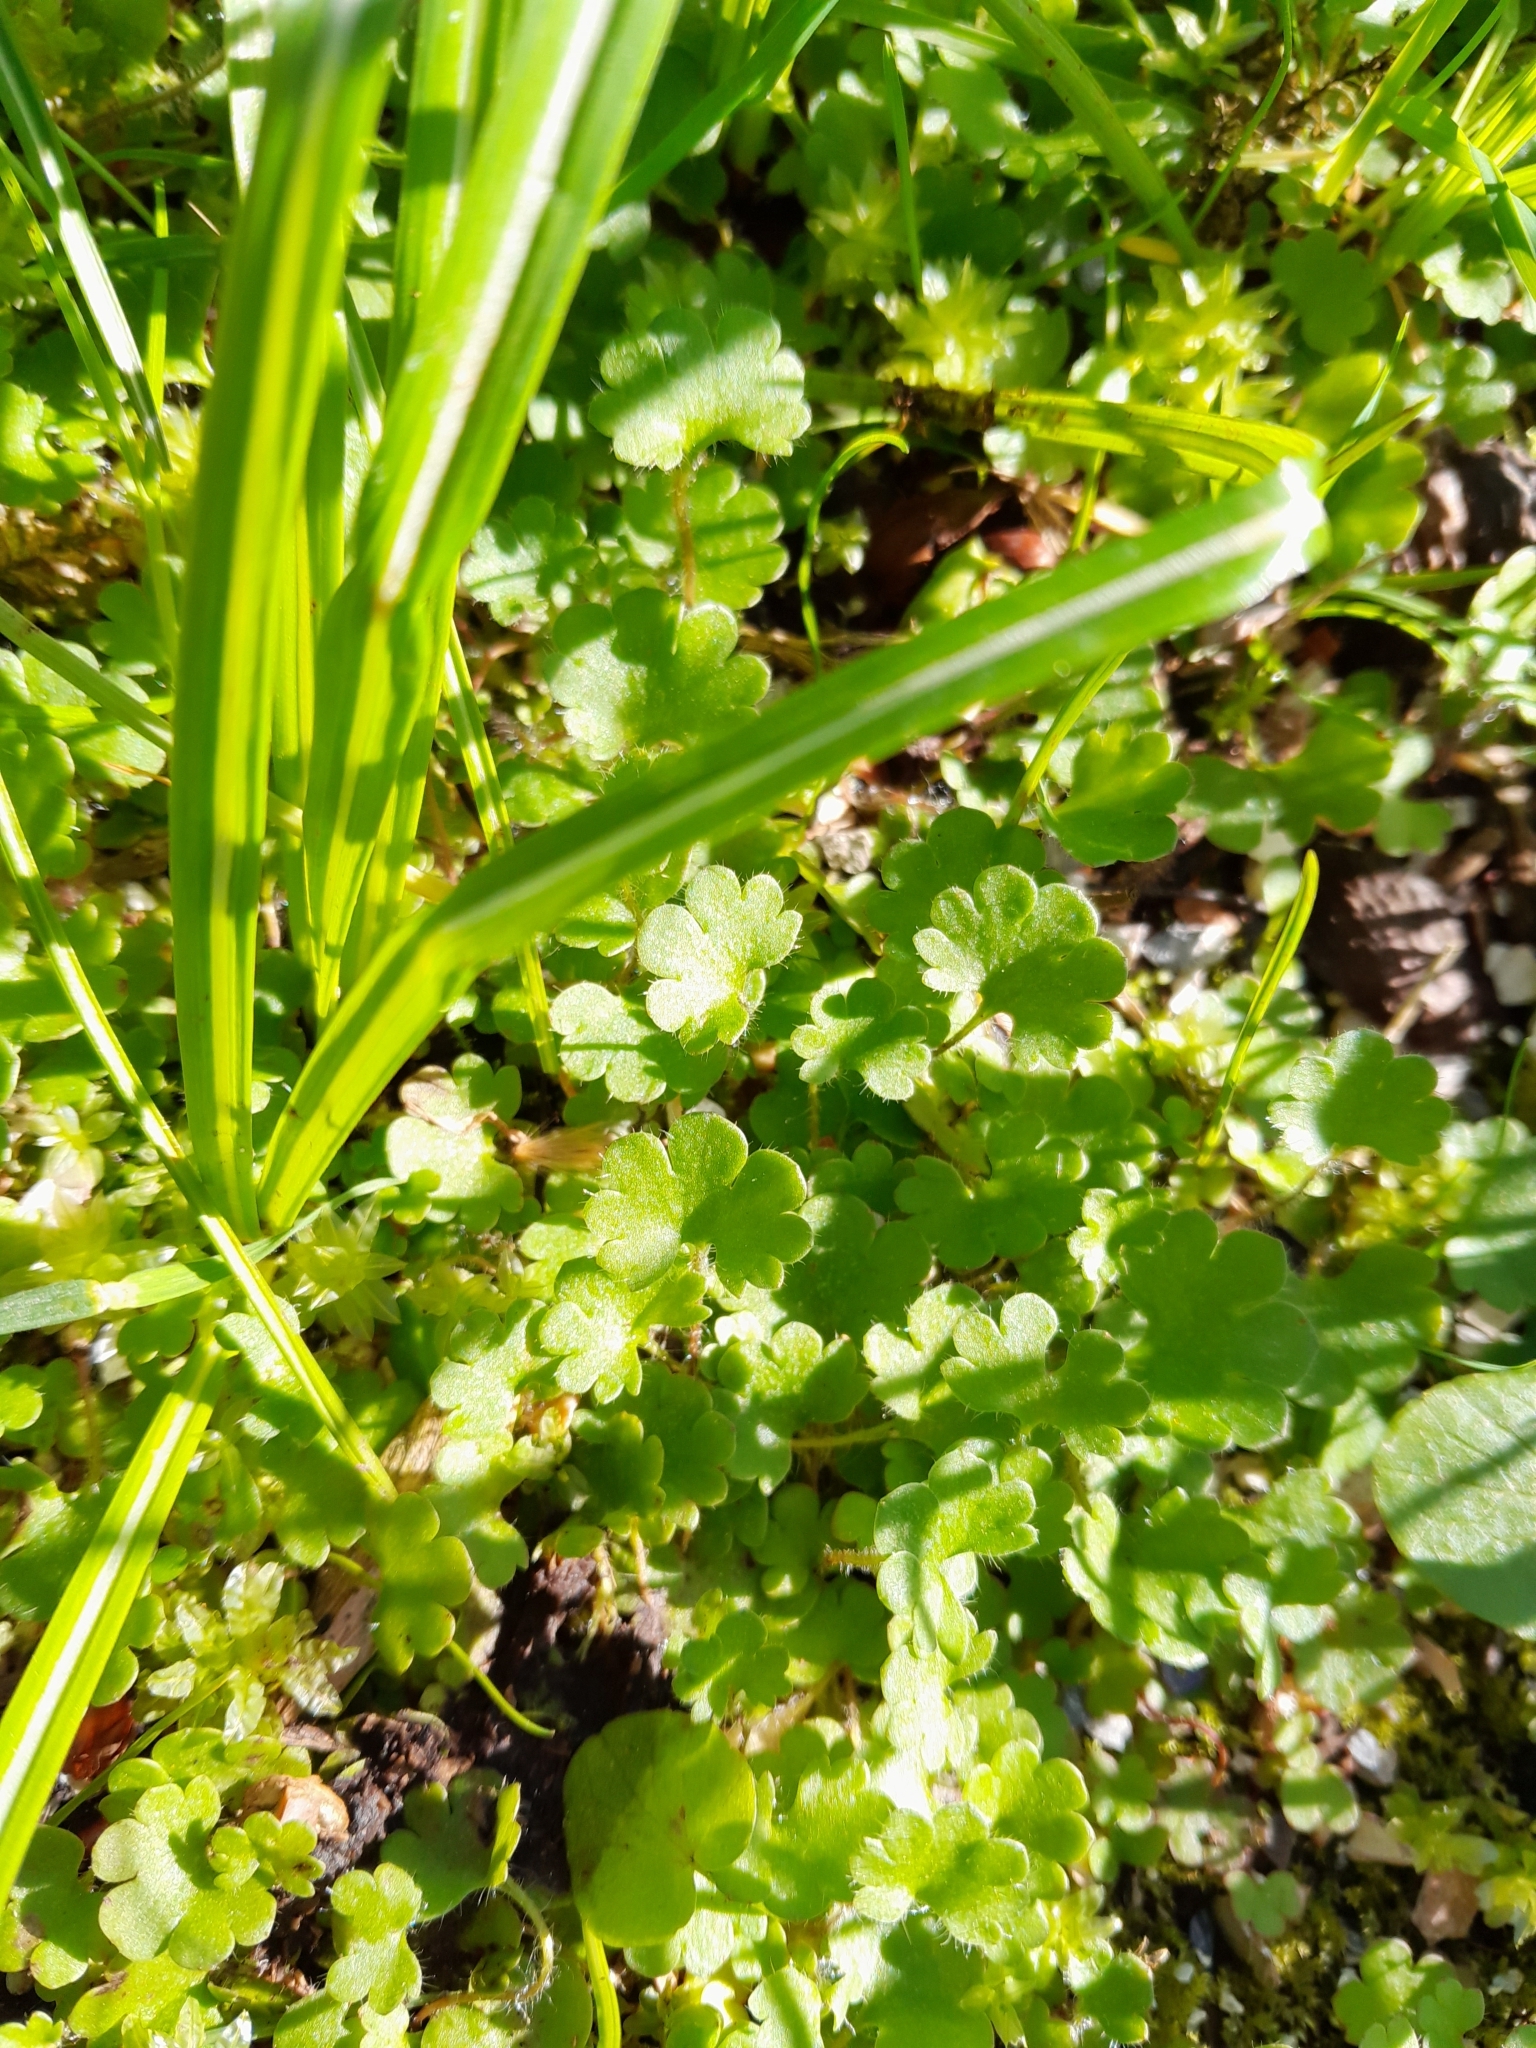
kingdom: Plantae
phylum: Tracheophyta
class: Magnoliopsida
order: Saxifragales
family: Saxifragaceae
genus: Saxifraga
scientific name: Saxifraga granulata
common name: Meadow saxifrage
